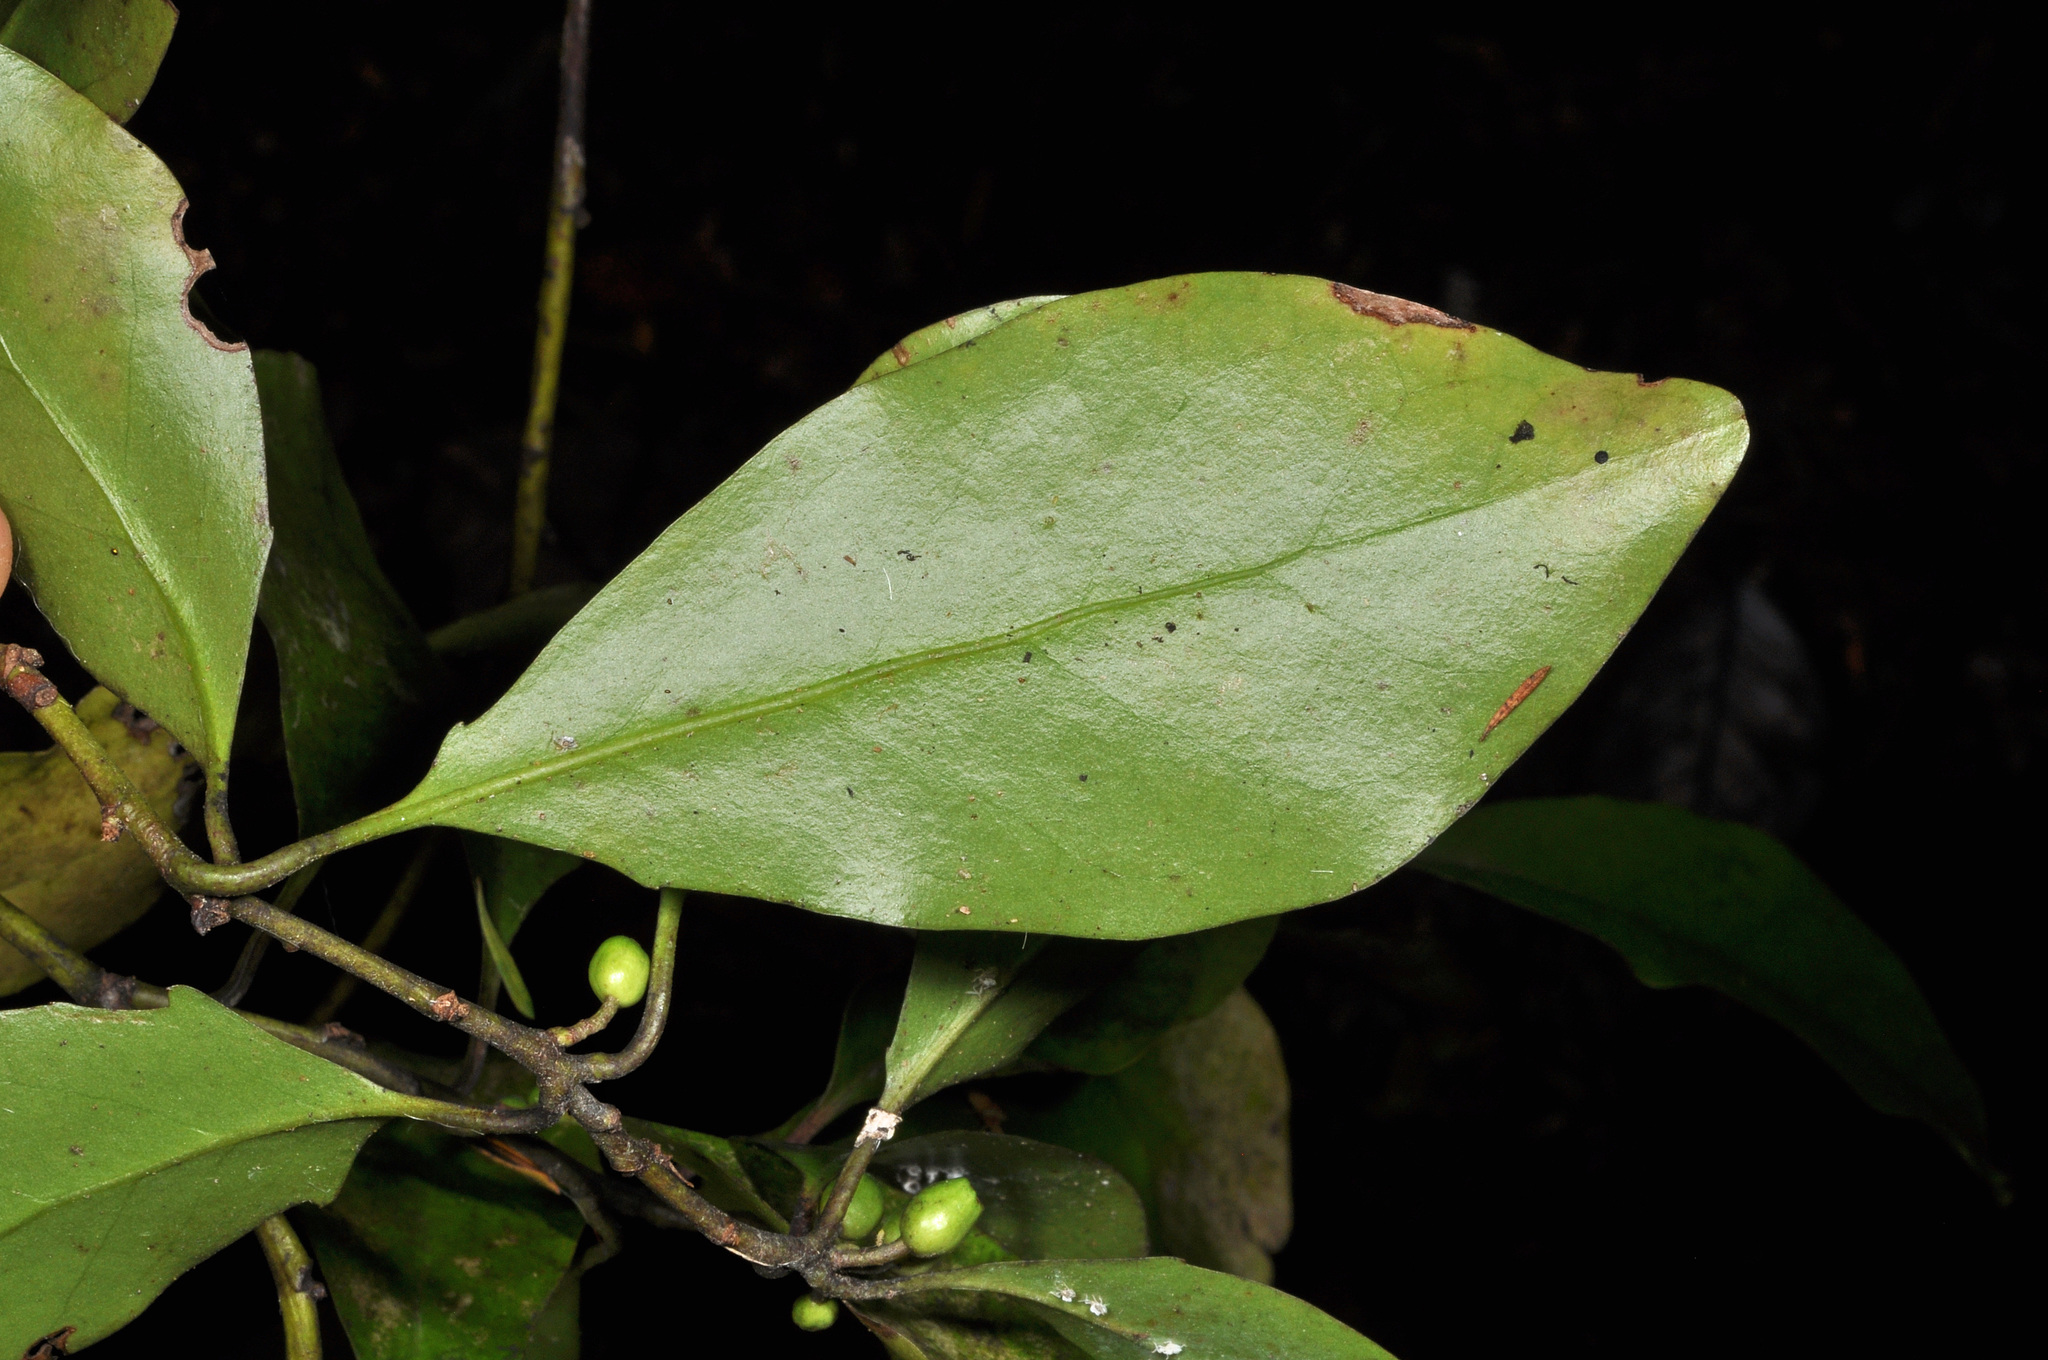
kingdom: Plantae
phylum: Tracheophyta
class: Magnoliopsida
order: Asterales
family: Alseuosmiaceae
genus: Alseuosmia
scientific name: Alseuosmia quercifolia
